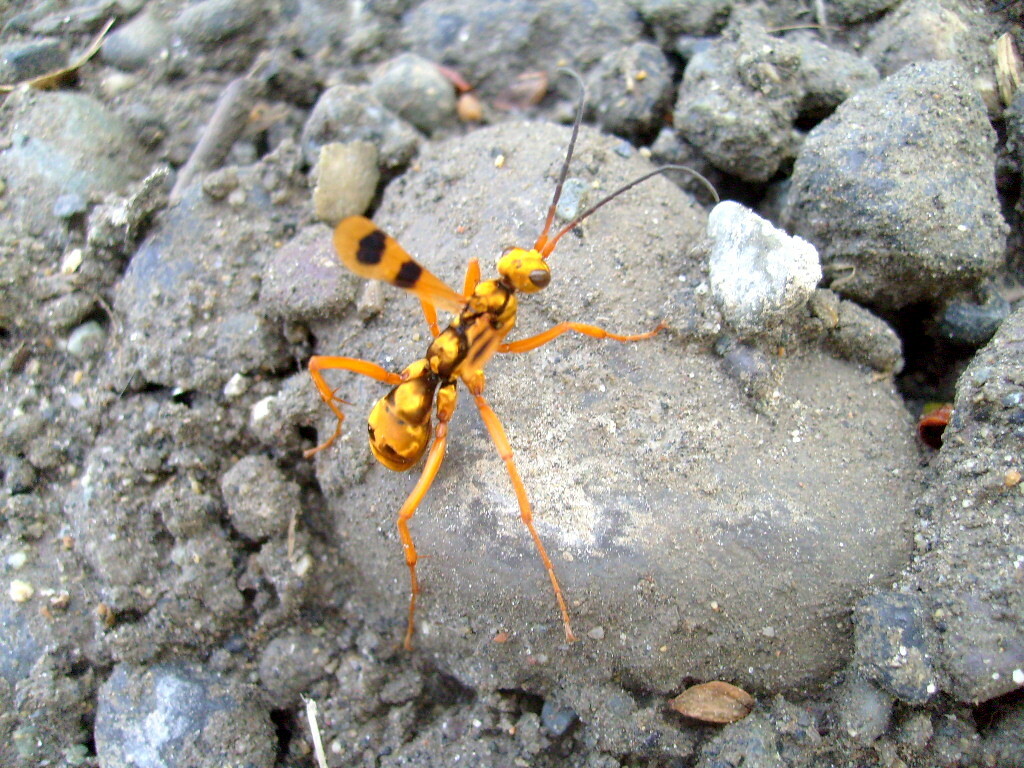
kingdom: Animalia
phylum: Arthropoda
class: Insecta
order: Hymenoptera
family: Pompilidae
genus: Sphictostethus
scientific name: Sphictostethus gravesii
